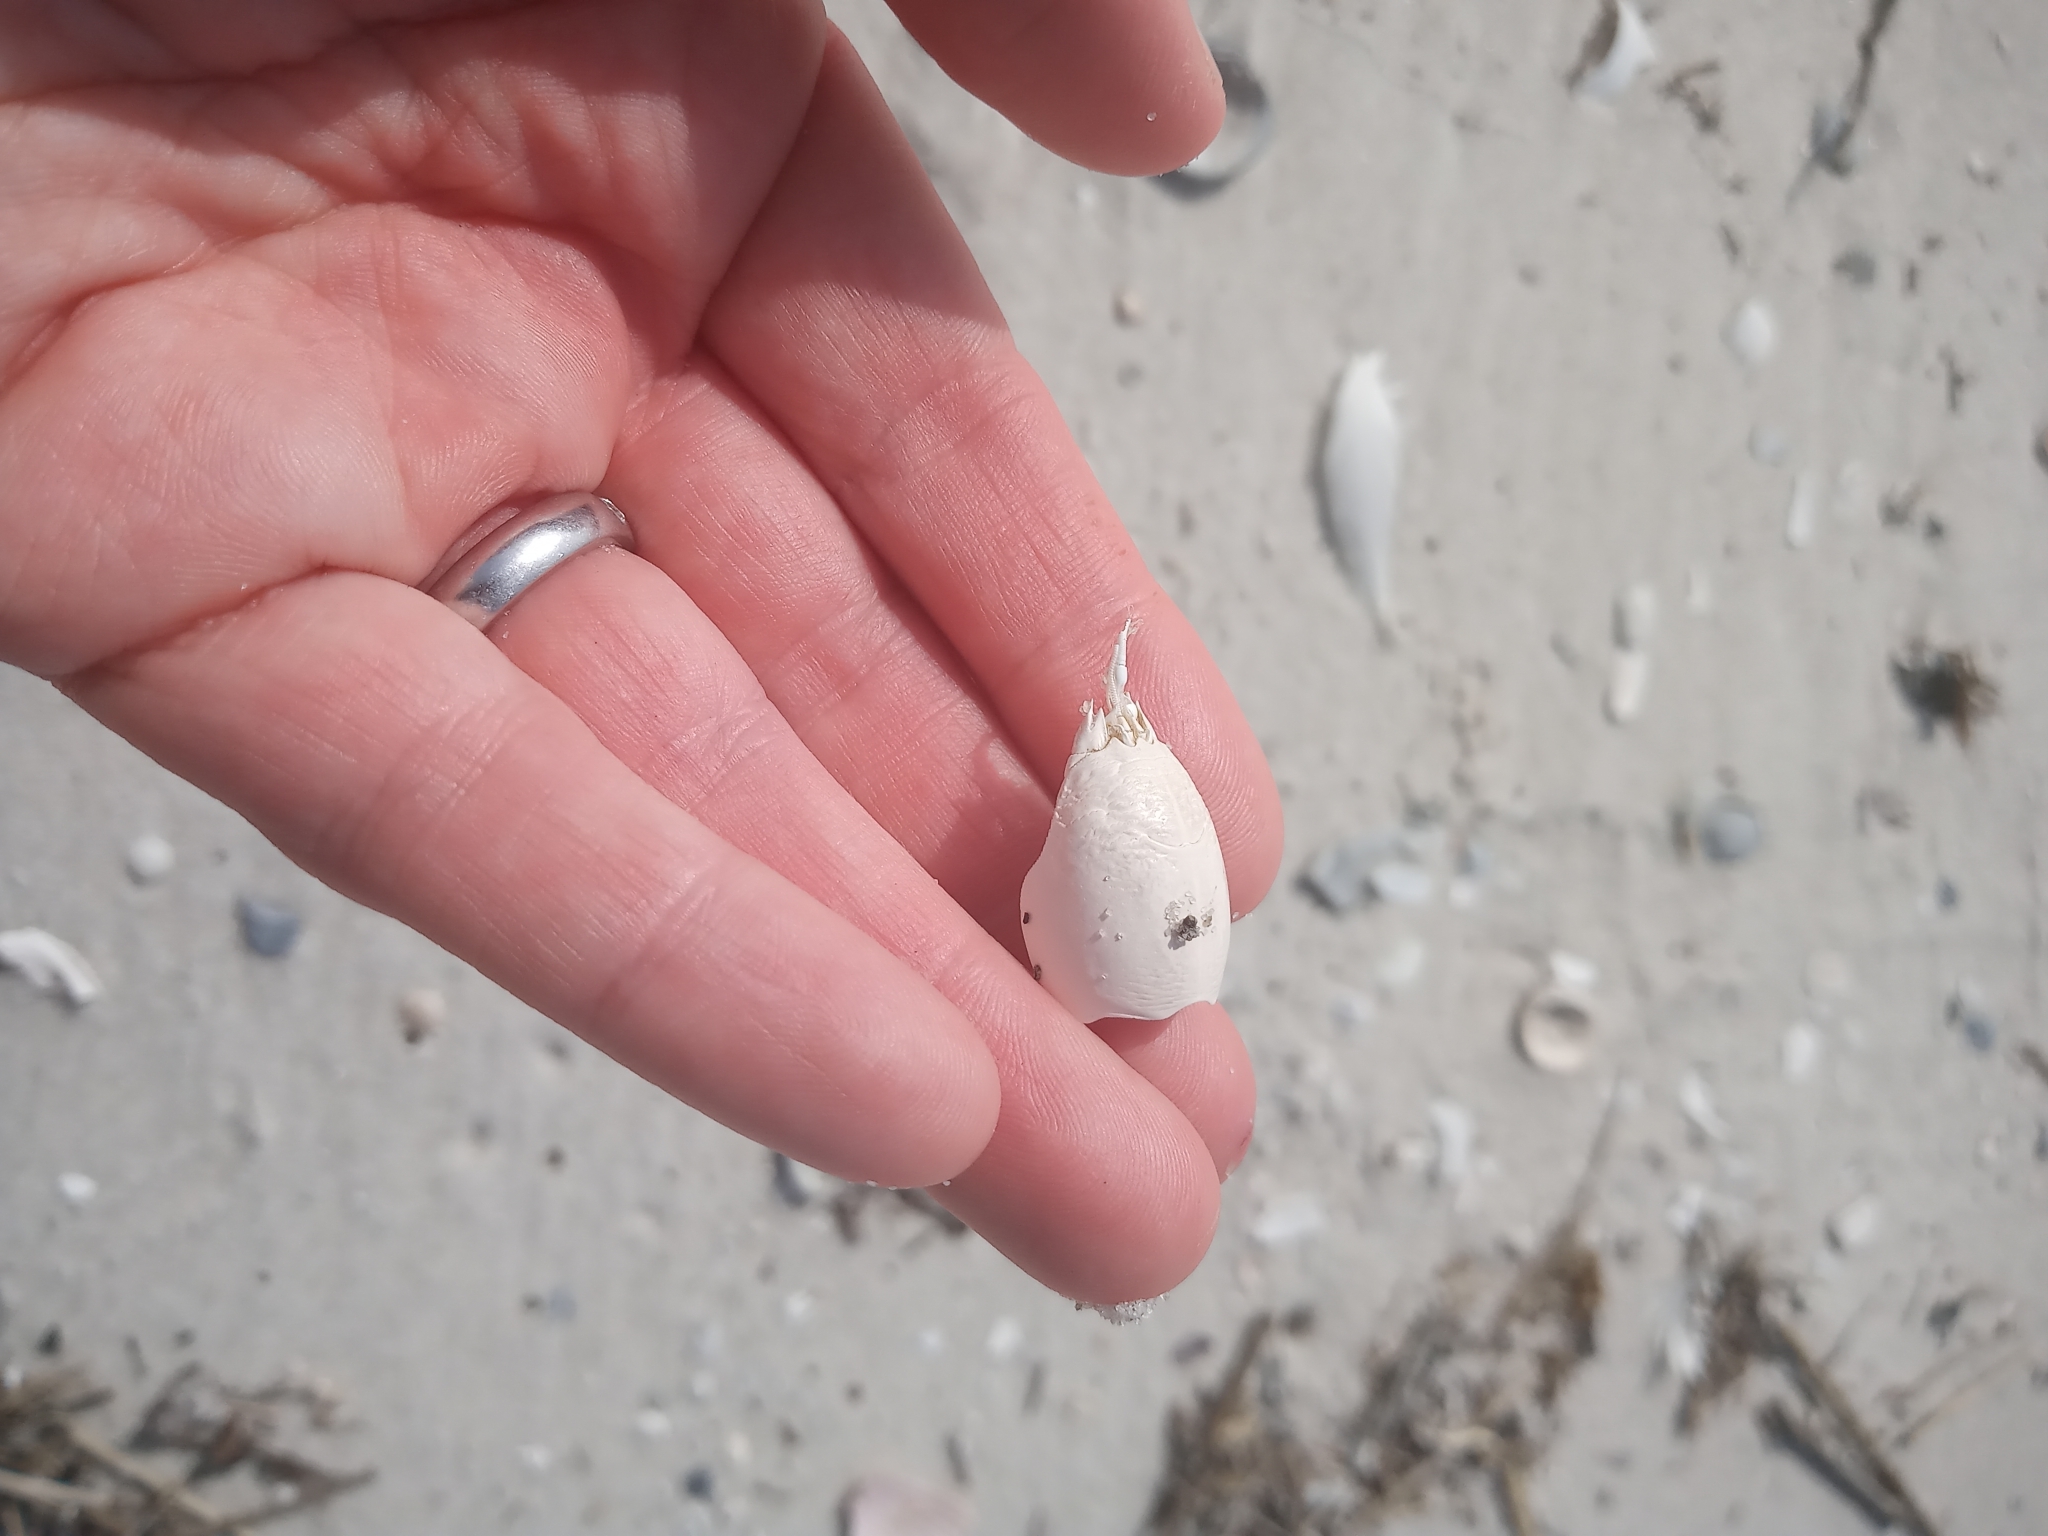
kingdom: Animalia
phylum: Arthropoda
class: Malacostraca
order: Decapoda
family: Hippidae
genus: Emerita
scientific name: Emerita talpoida
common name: Atlantic sand crab
